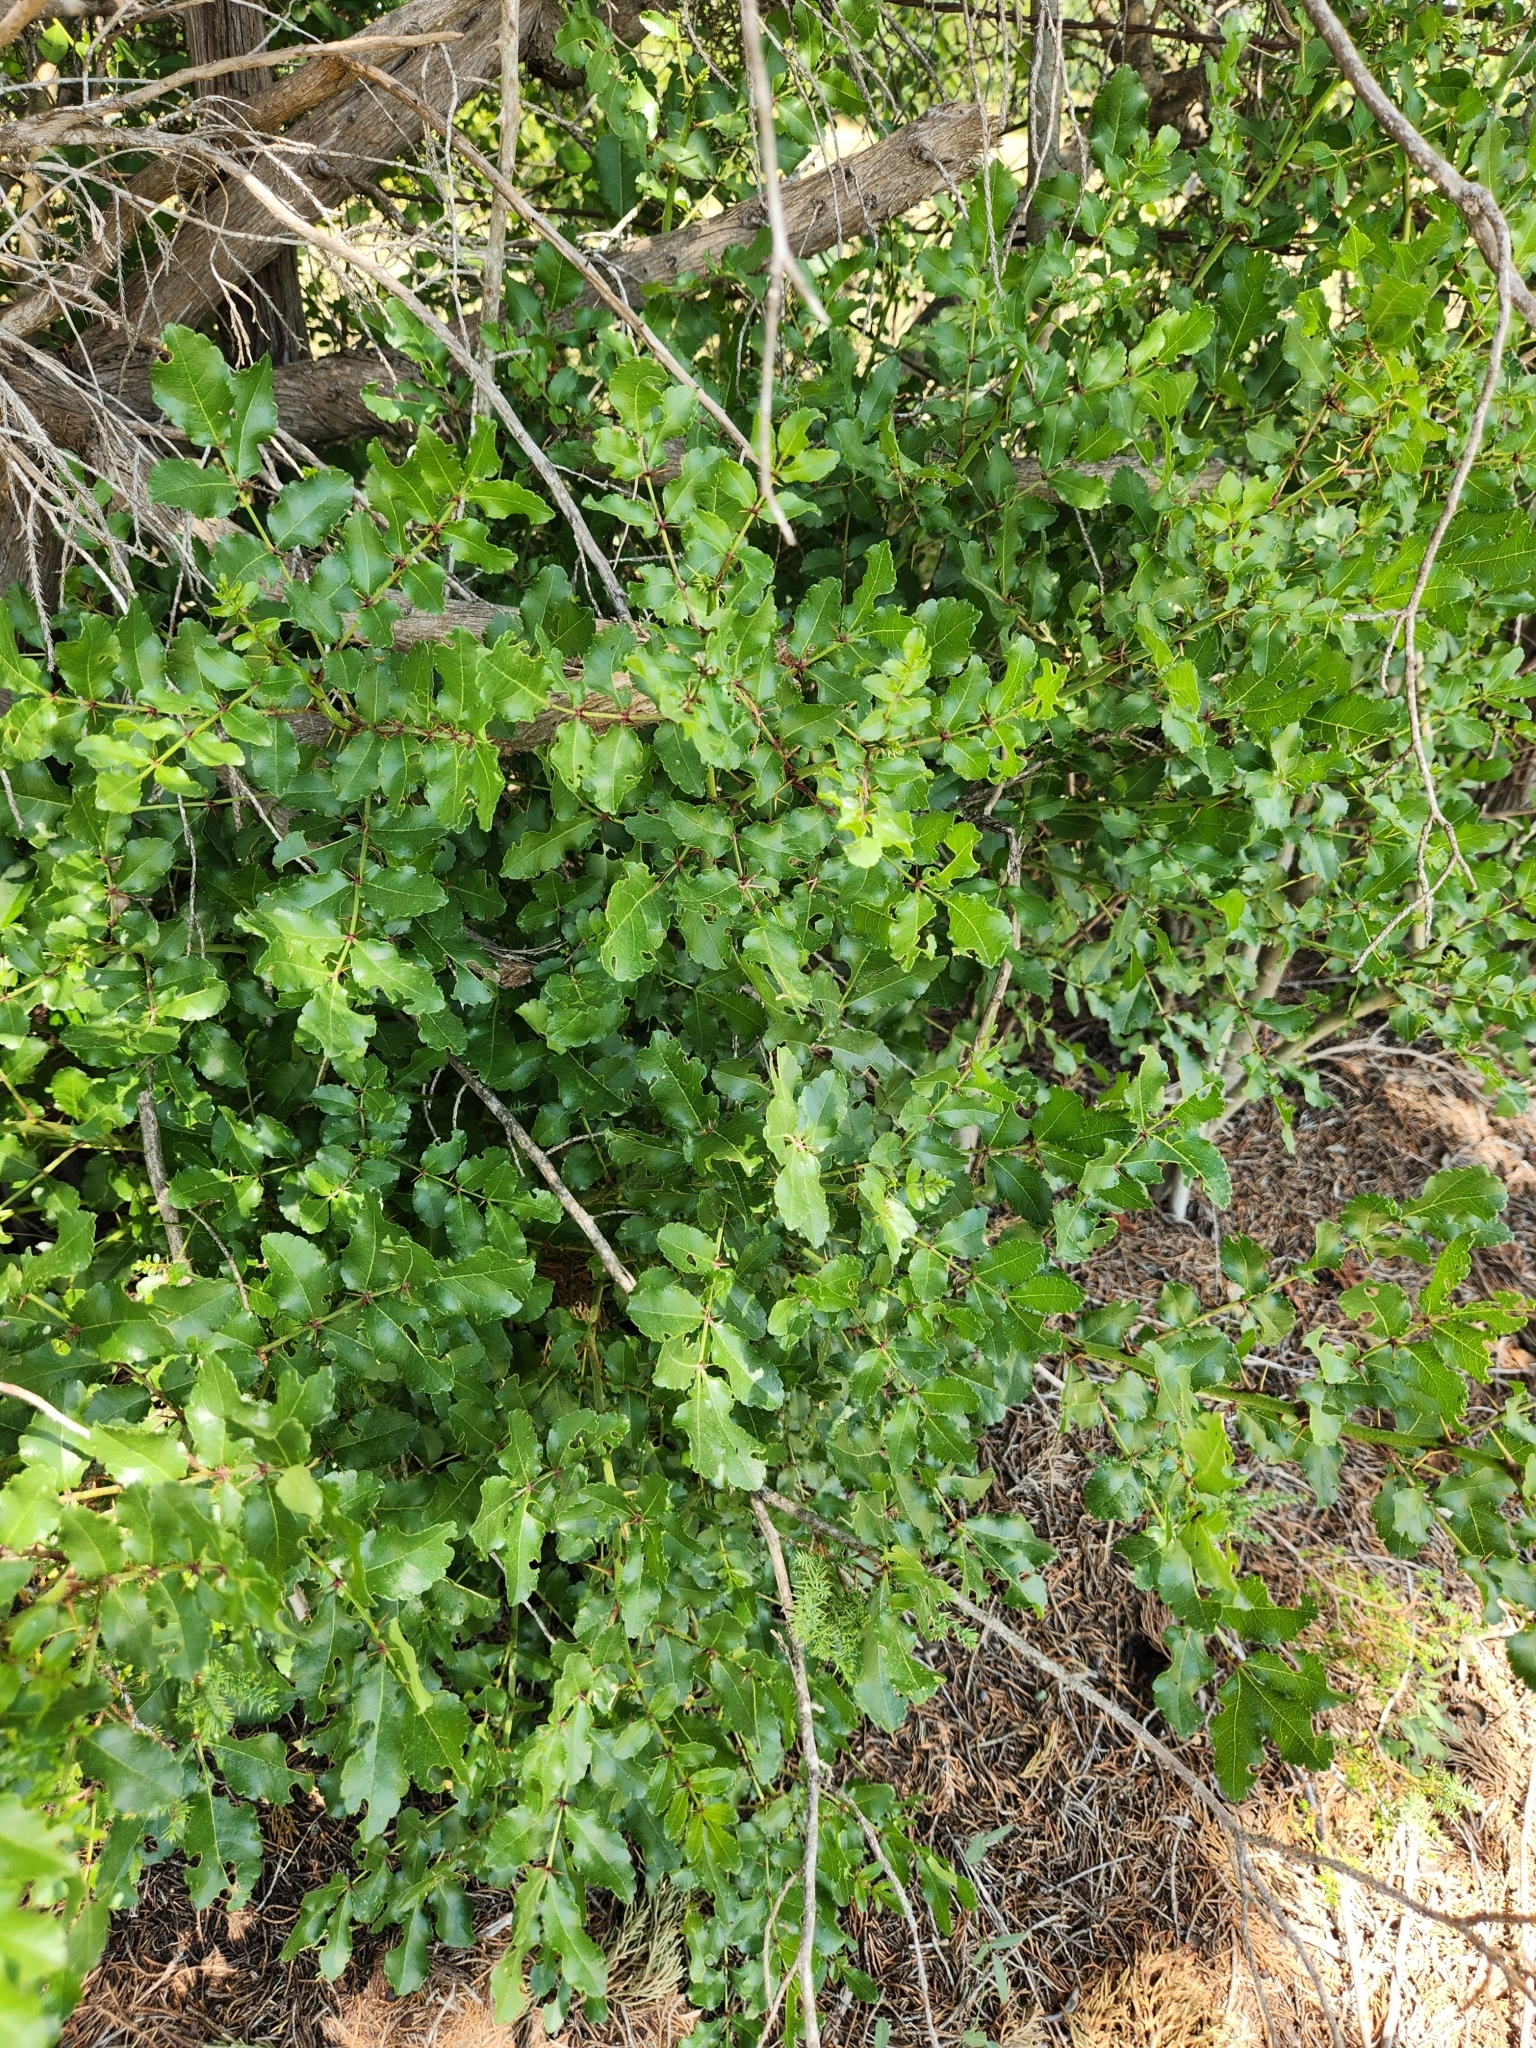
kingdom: Plantae
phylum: Tracheophyta
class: Magnoliopsida
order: Sapindales
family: Rutaceae
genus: Zanthoxylum
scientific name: Zanthoxylum clava-herculis
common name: Hercules'-club
